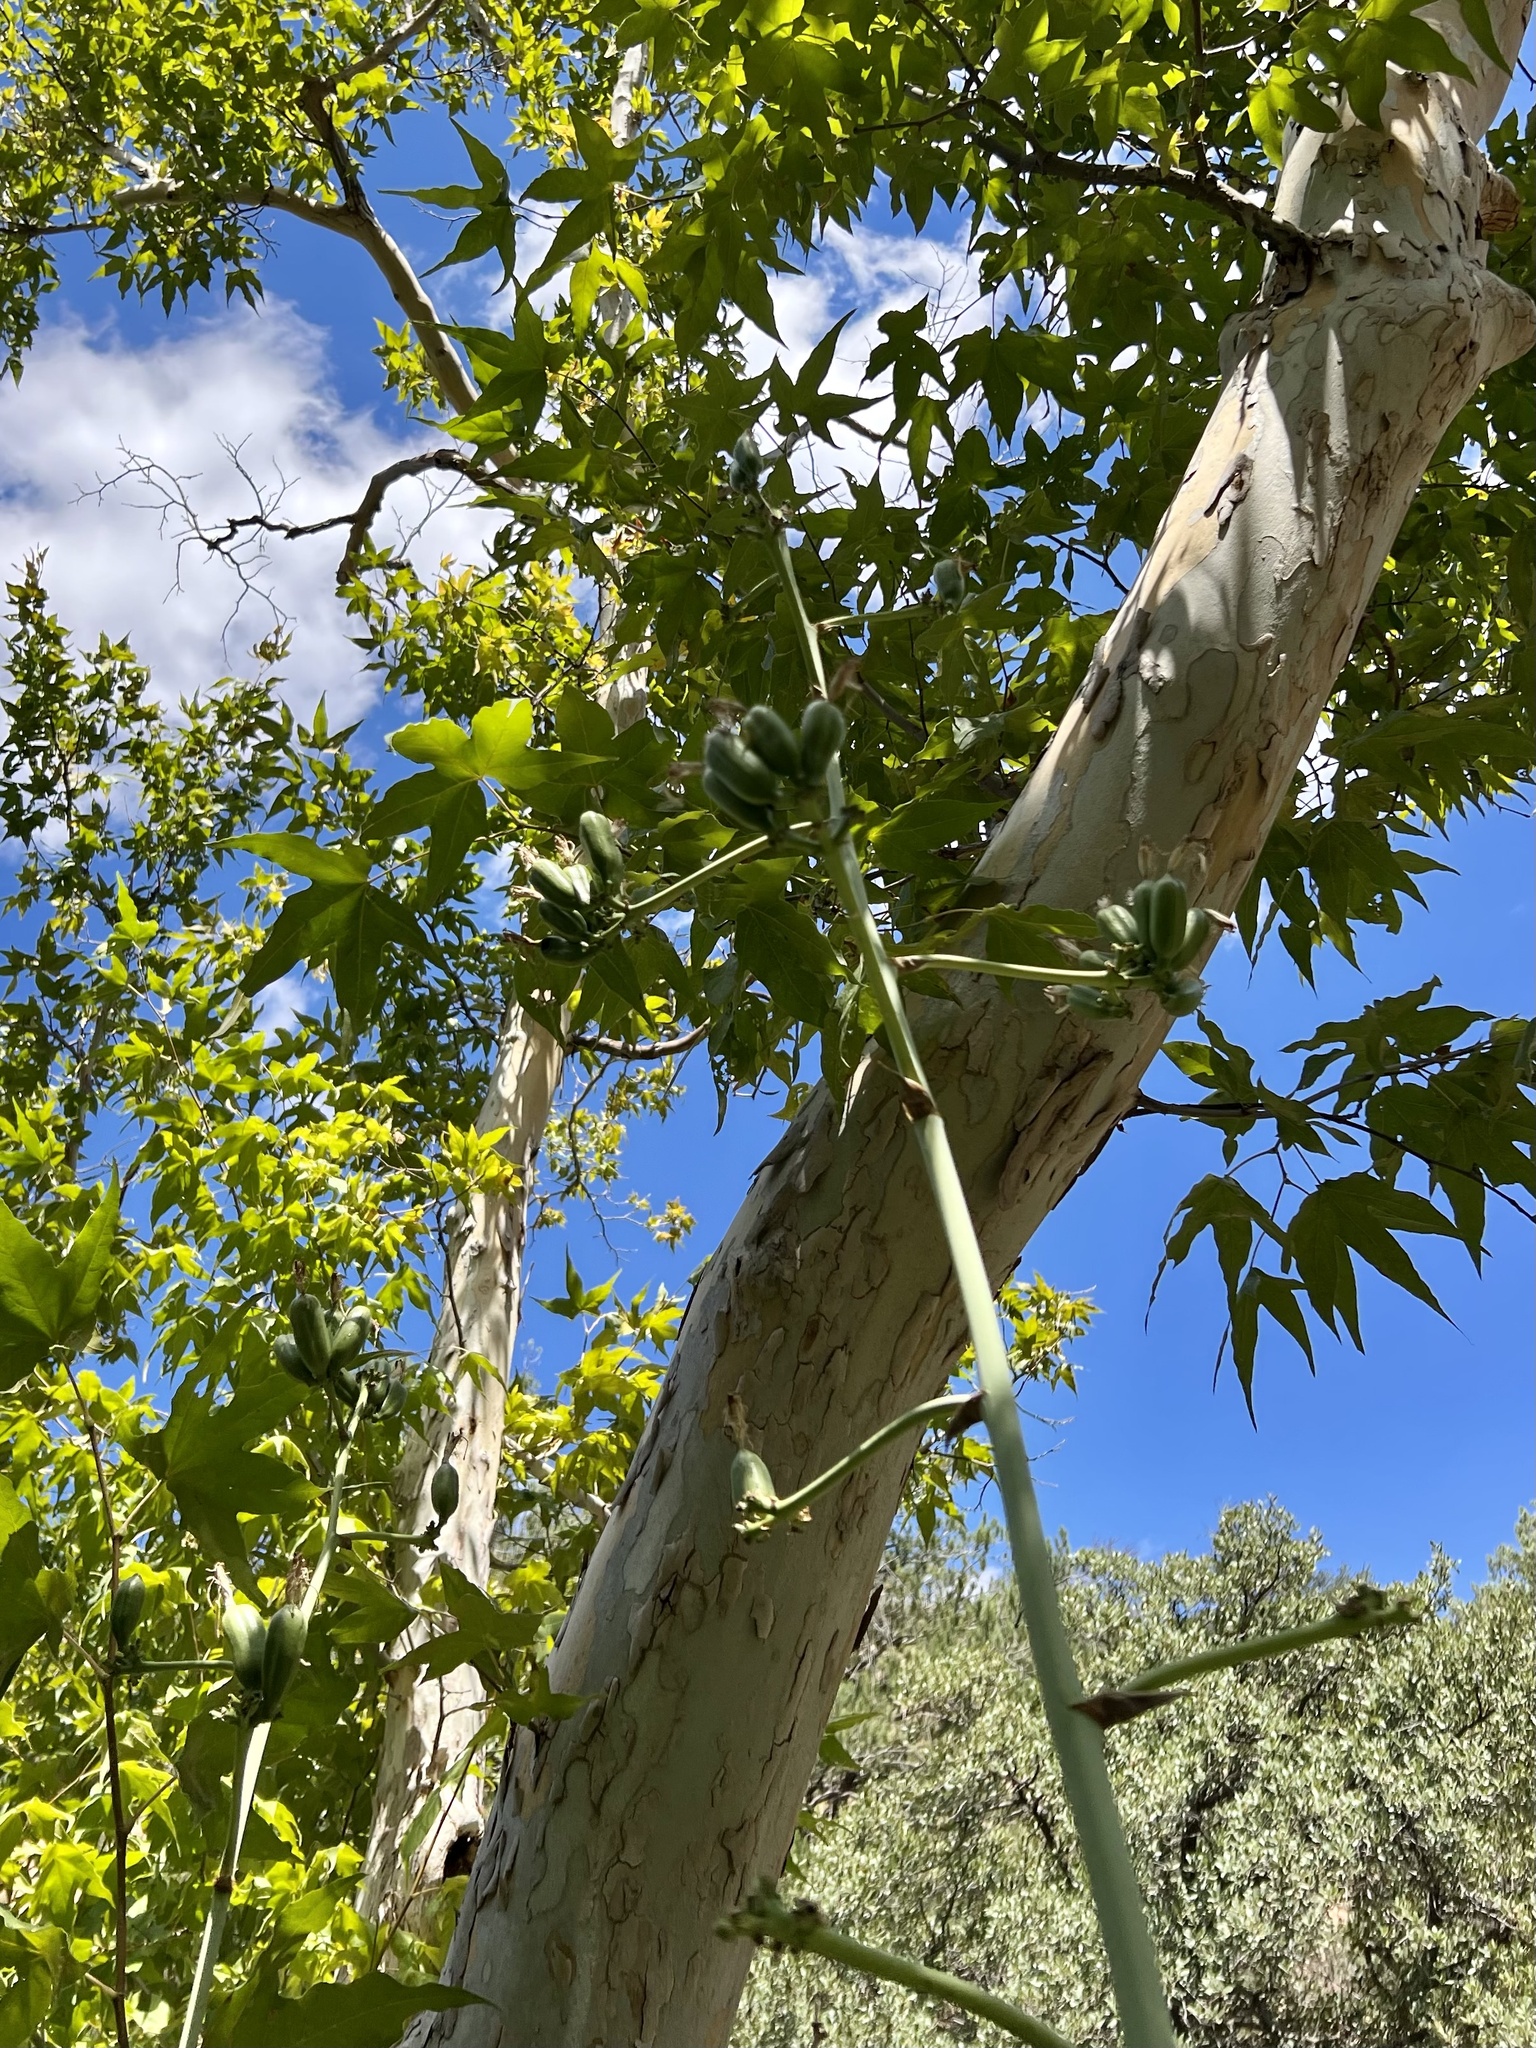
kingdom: Plantae
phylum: Tracheophyta
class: Liliopsida
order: Asparagales
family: Asparagaceae
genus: Agave
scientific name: Agave palmeri
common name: Palmer agave
